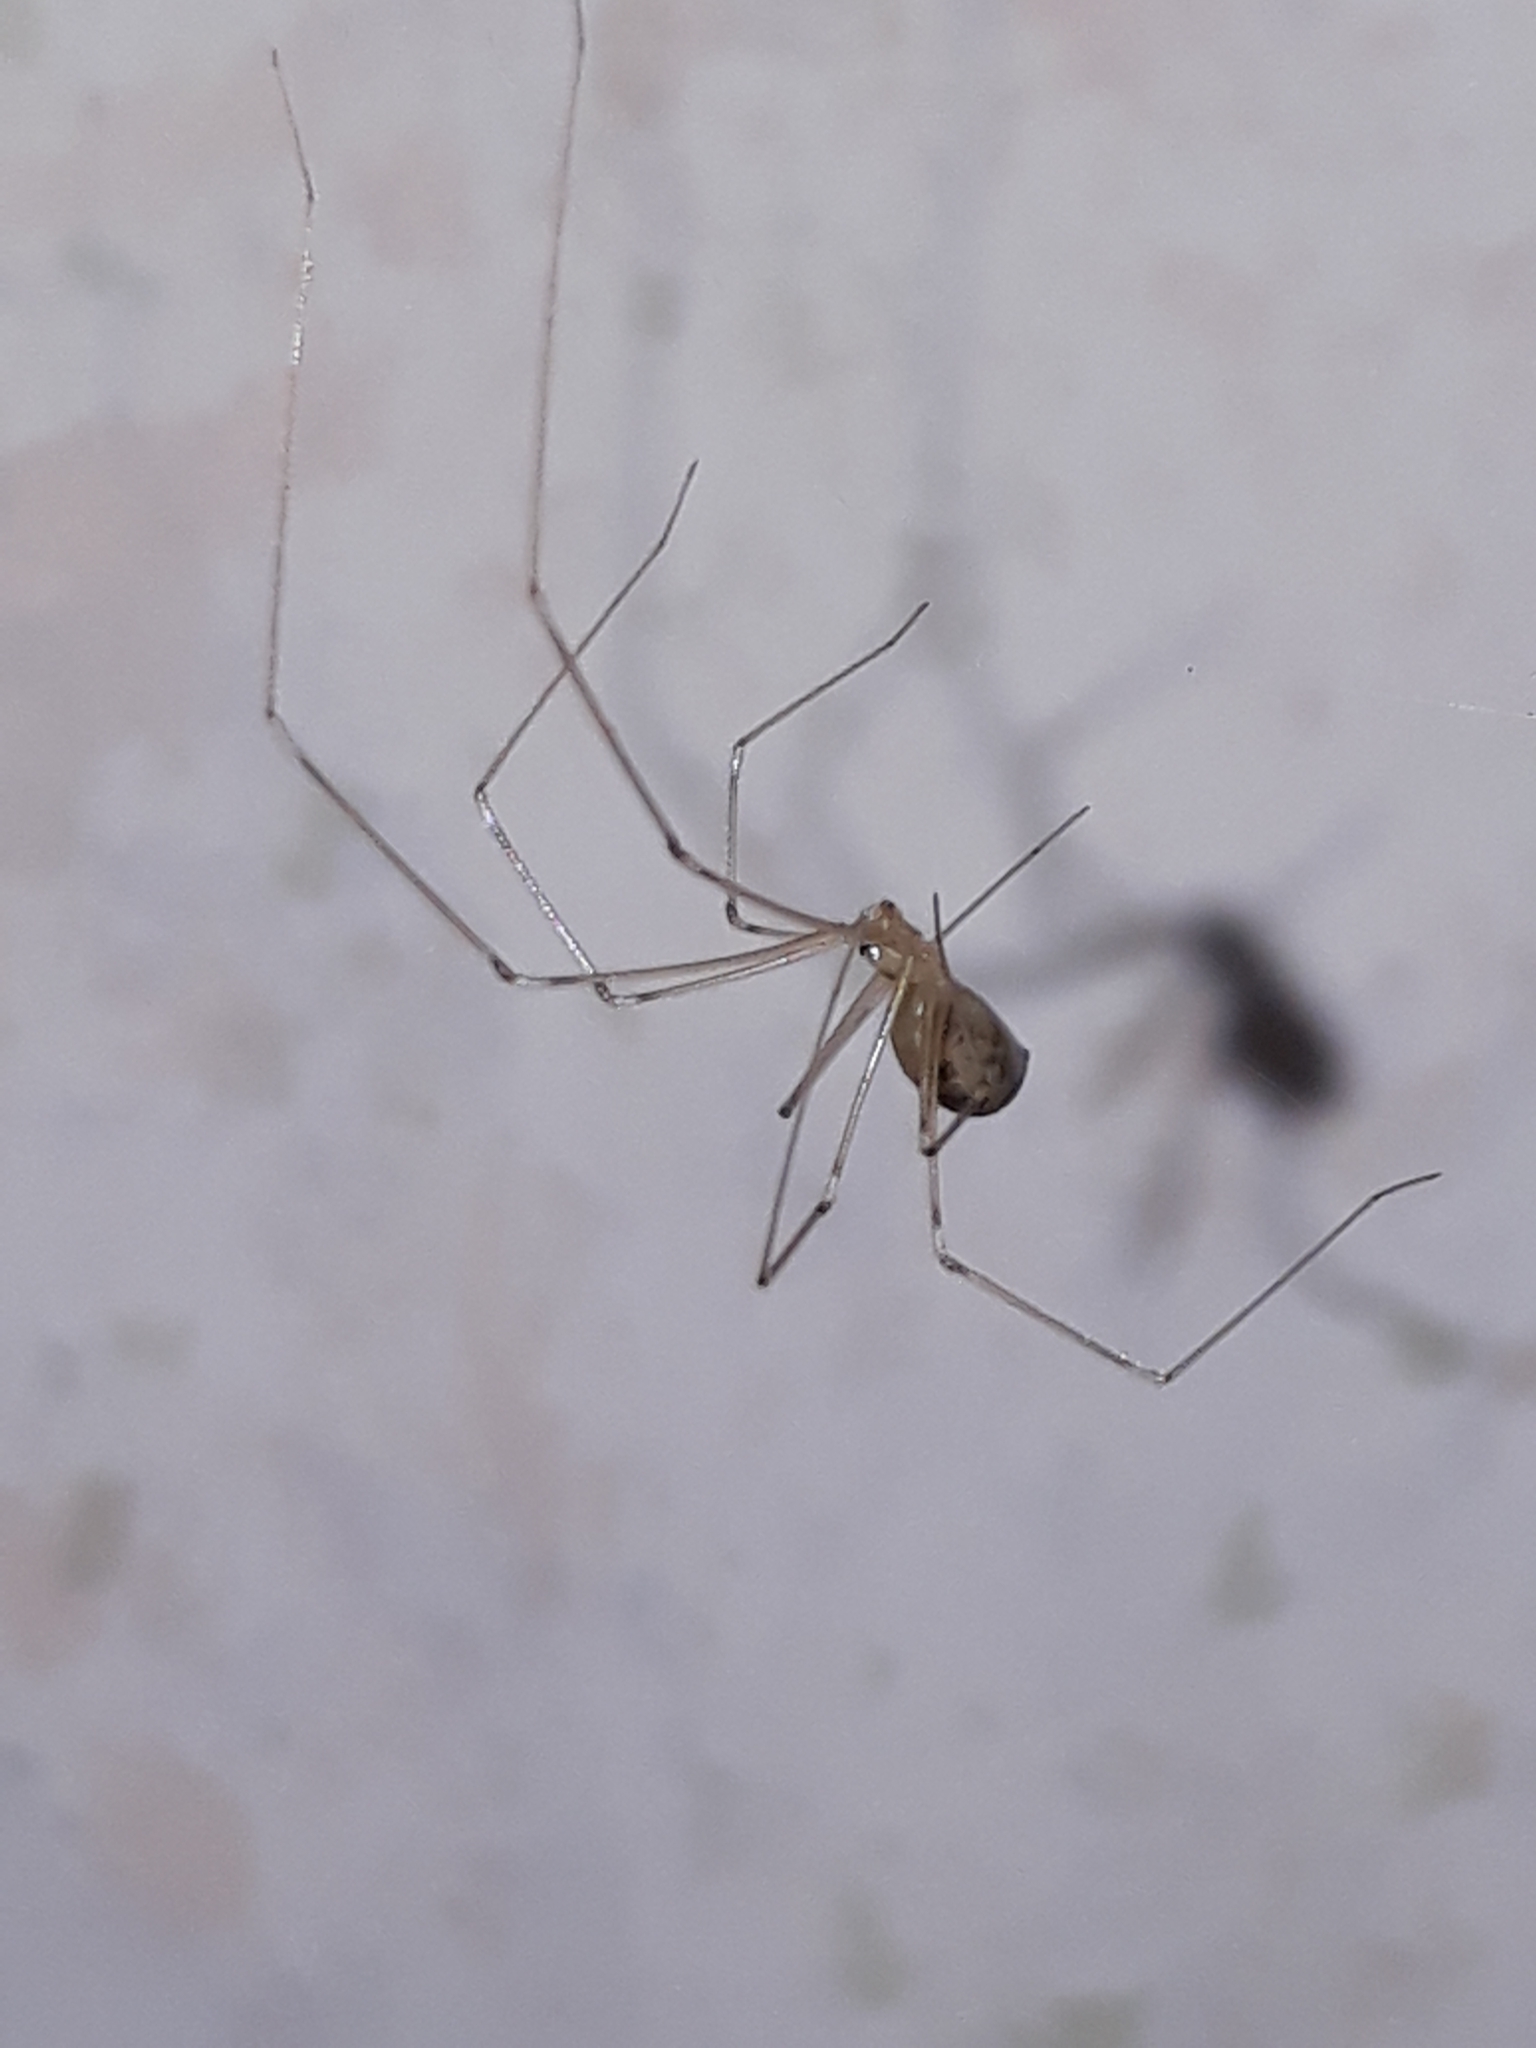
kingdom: Animalia
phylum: Arthropoda
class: Arachnida
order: Araneae
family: Pholcidae
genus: Pholcus
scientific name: Pholcus phalangioides
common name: Longbodied cellar spider
